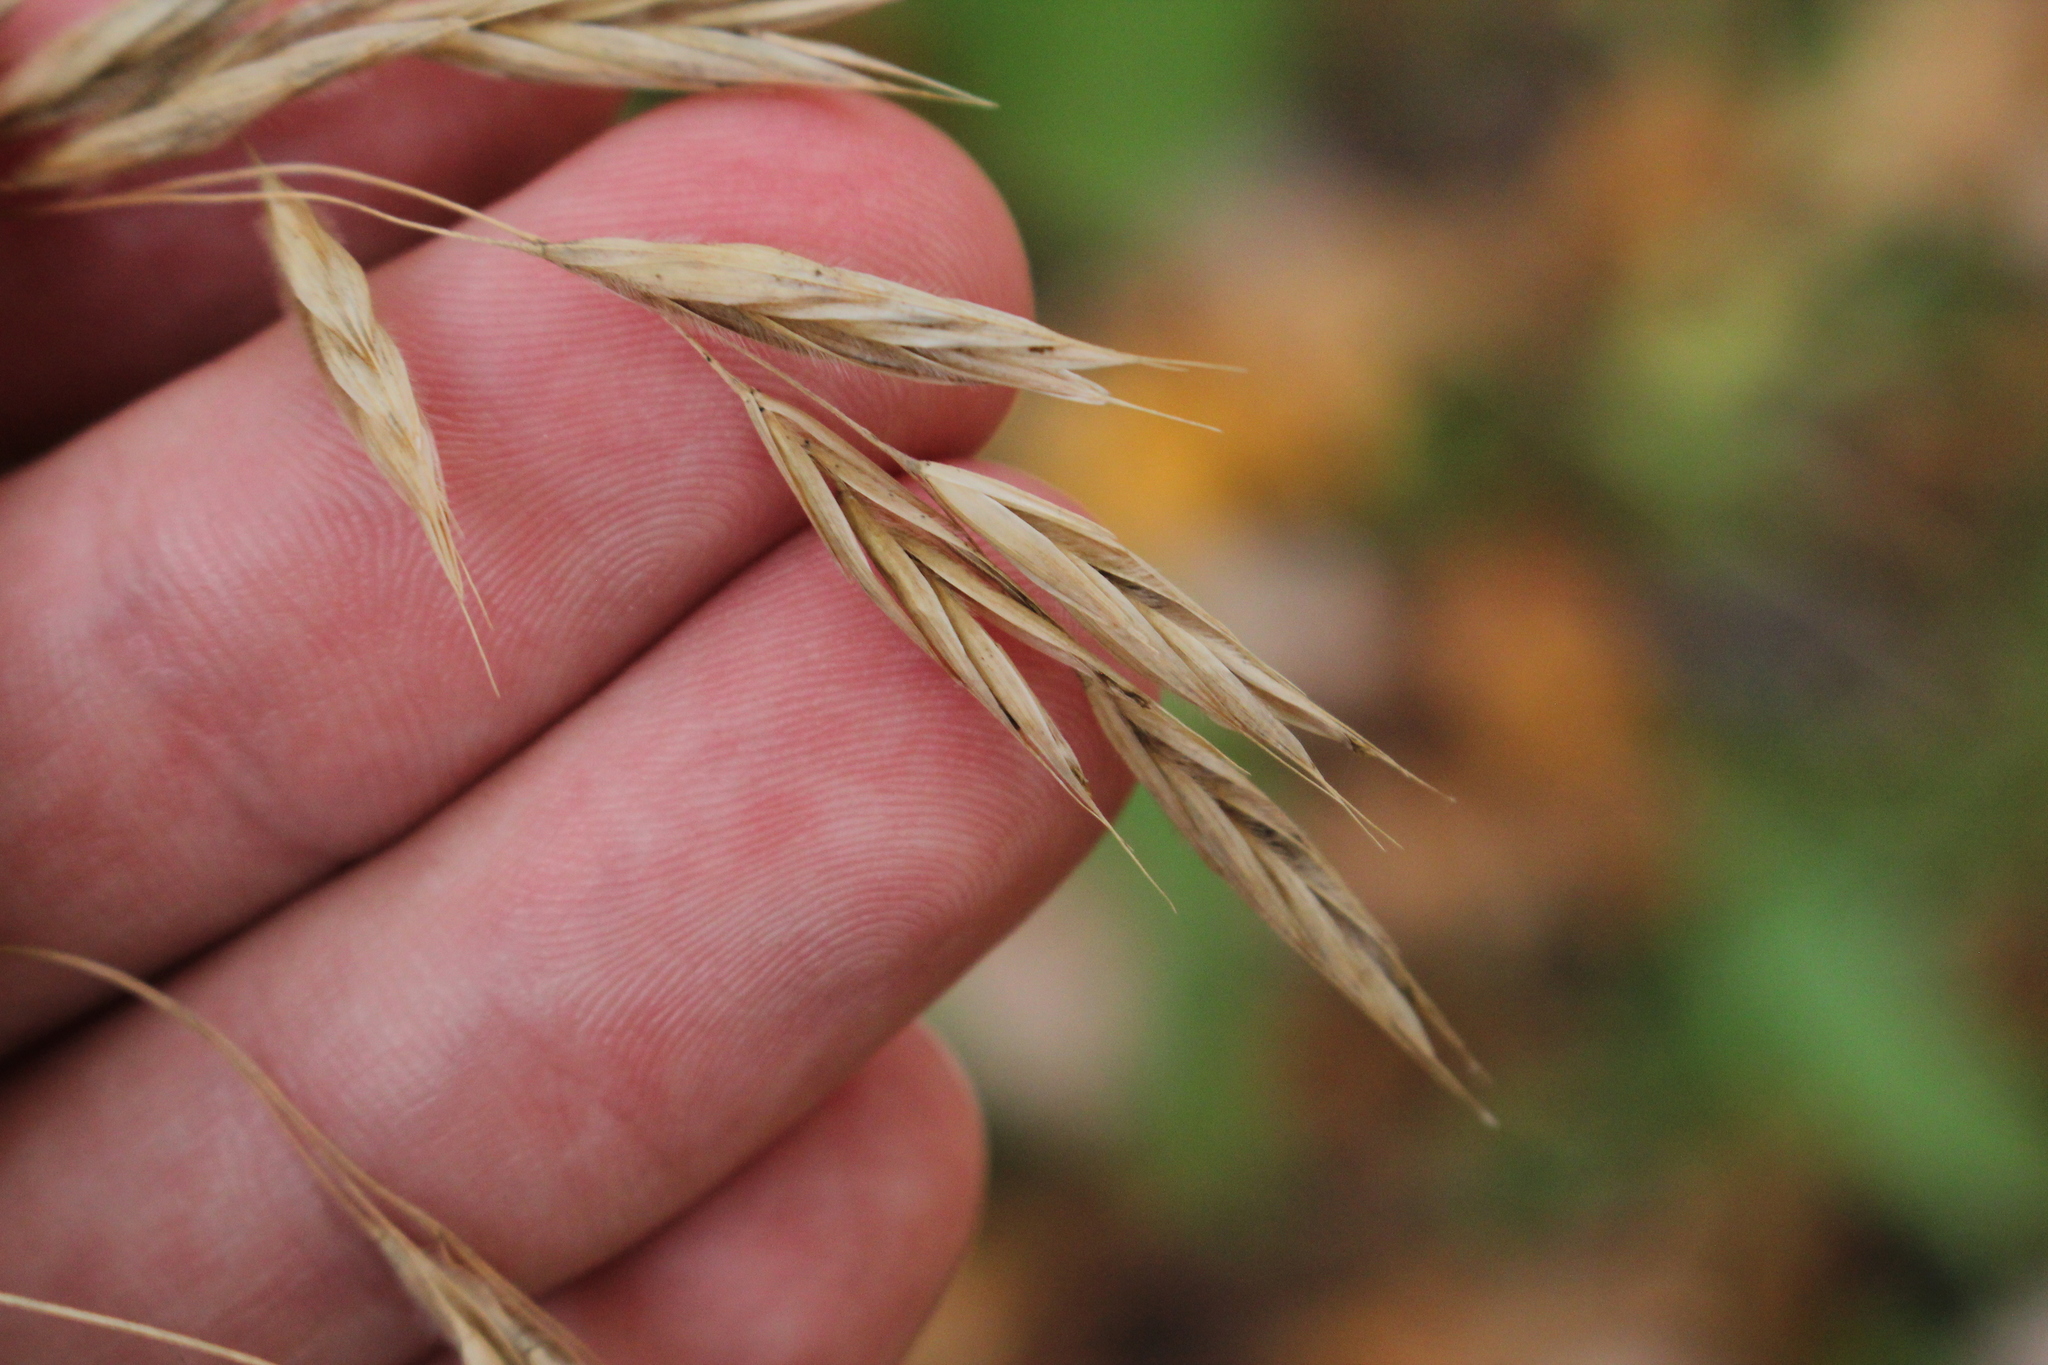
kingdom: Plantae
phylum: Tracheophyta
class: Liliopsida
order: Poales
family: Poaceae
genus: Bromus
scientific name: Bromus ciliatus
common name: Fringe brome
